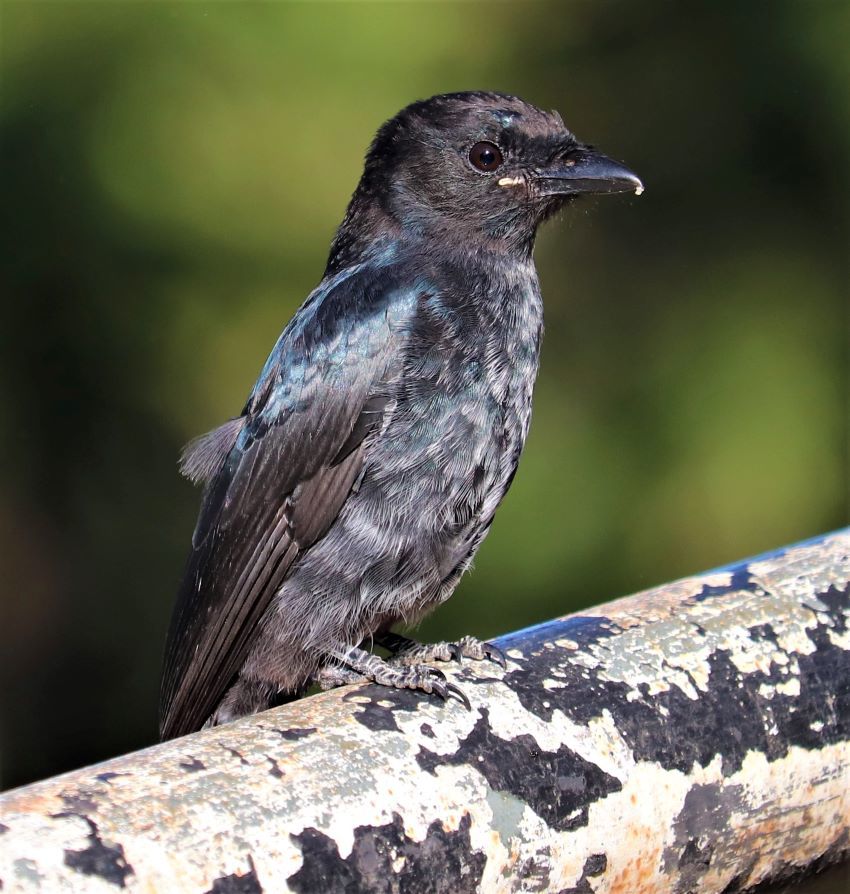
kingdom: Animalia
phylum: Chordata
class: Aves
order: Passeriformes
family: Dicruridae
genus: Dicrurus
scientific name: Dicrurus adsimilis
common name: Fork-tailed drongo
